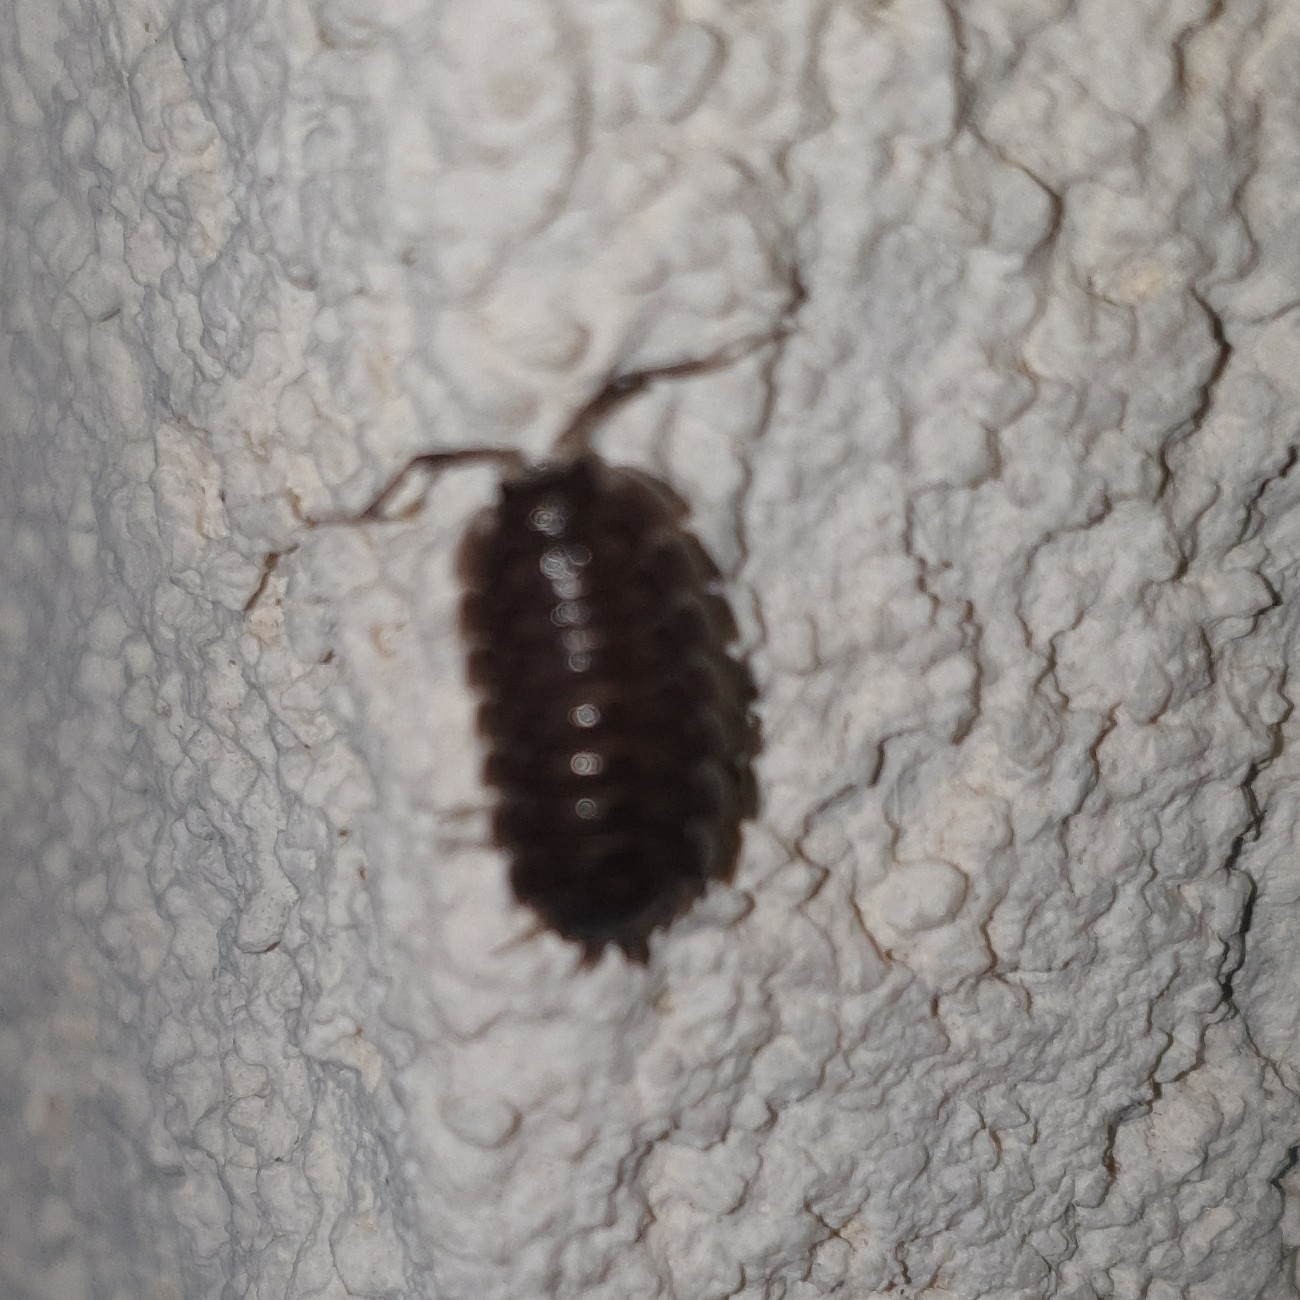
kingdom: Animalia
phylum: Arthropoda
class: Malacostraca
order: Isopoda
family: Porcellionidae
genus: Porcellio
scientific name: Porcellio obsoletus
